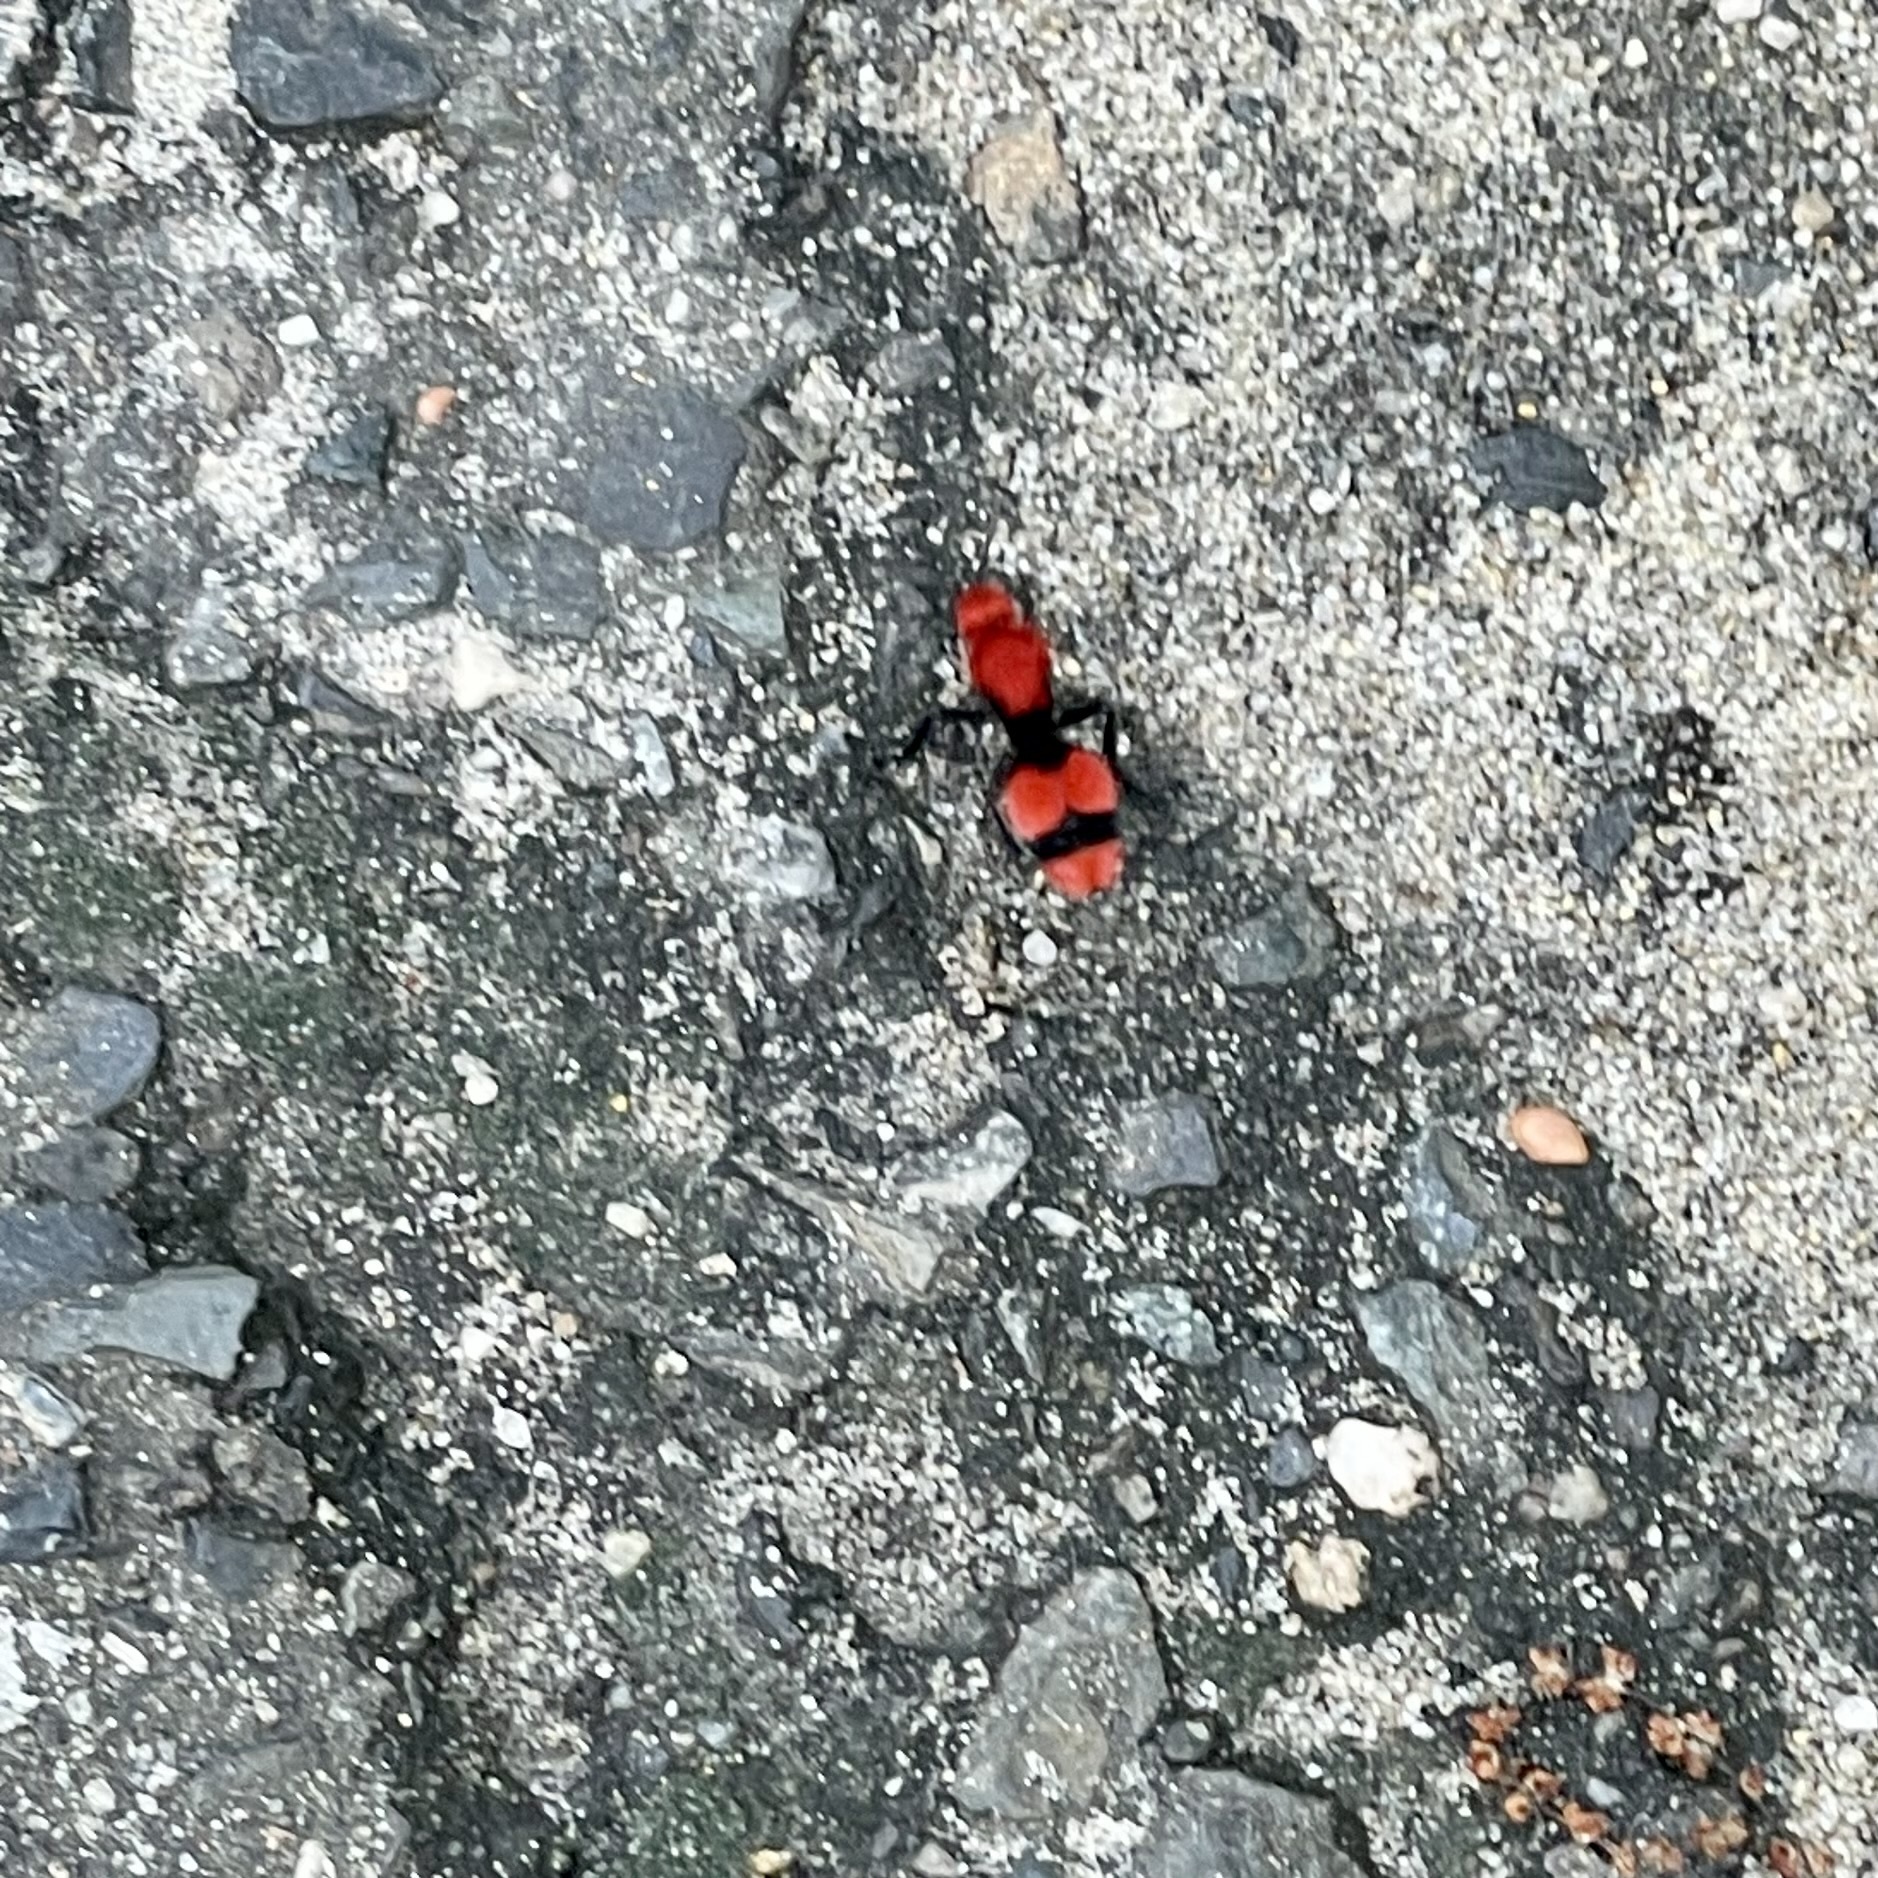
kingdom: Animalia
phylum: Arthropoda
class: Insecta
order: Hymenoptera
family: Mutillidae
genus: Dasymutilla
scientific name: Dasymutilla occidentalis
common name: Common eastern velvet ant
